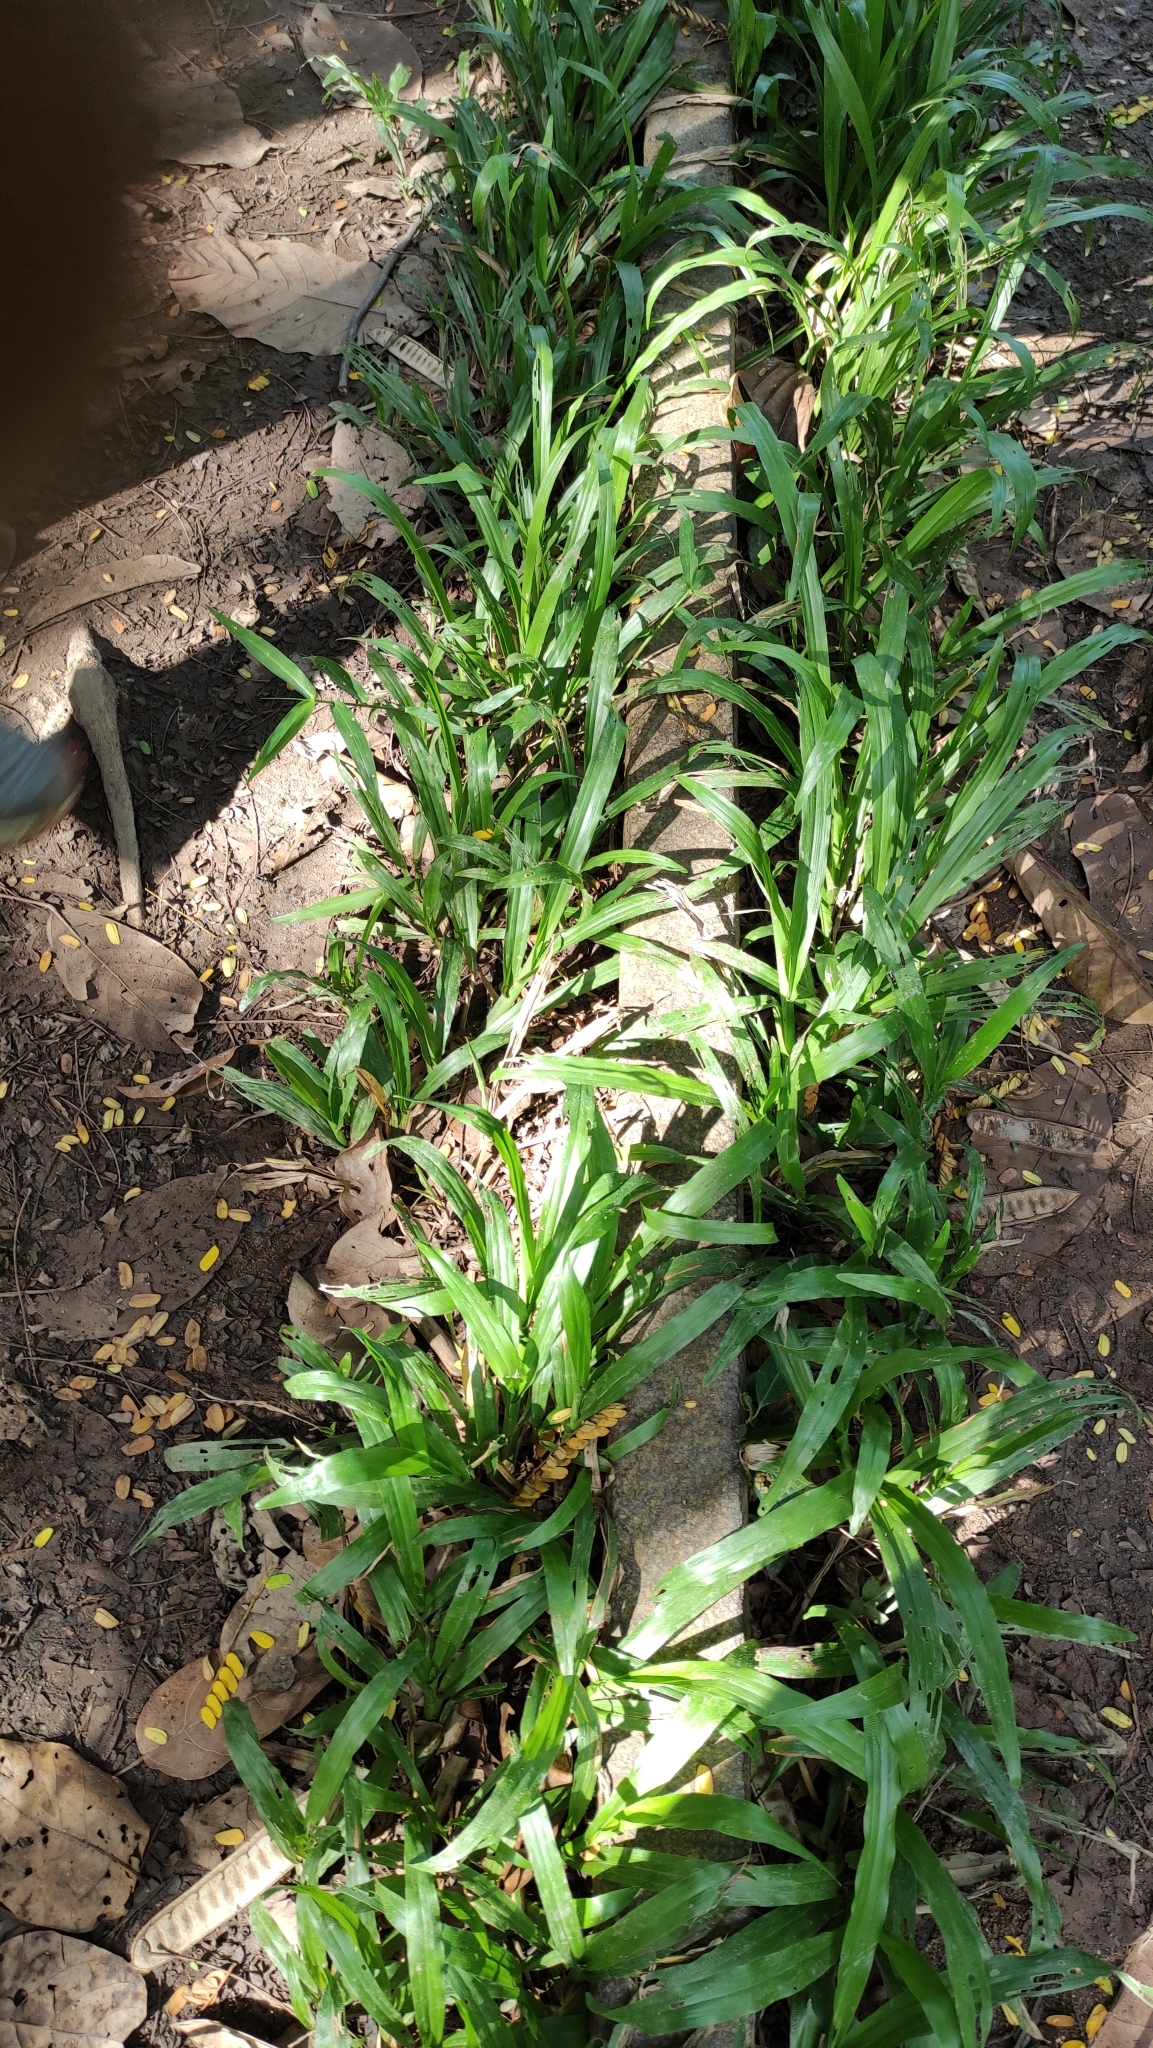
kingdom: Plantae
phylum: Tracheophyta
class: Liliopsida
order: Poales
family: Poaceae
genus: Axonopus
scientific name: Axonopus compressus
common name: American carpet grass
